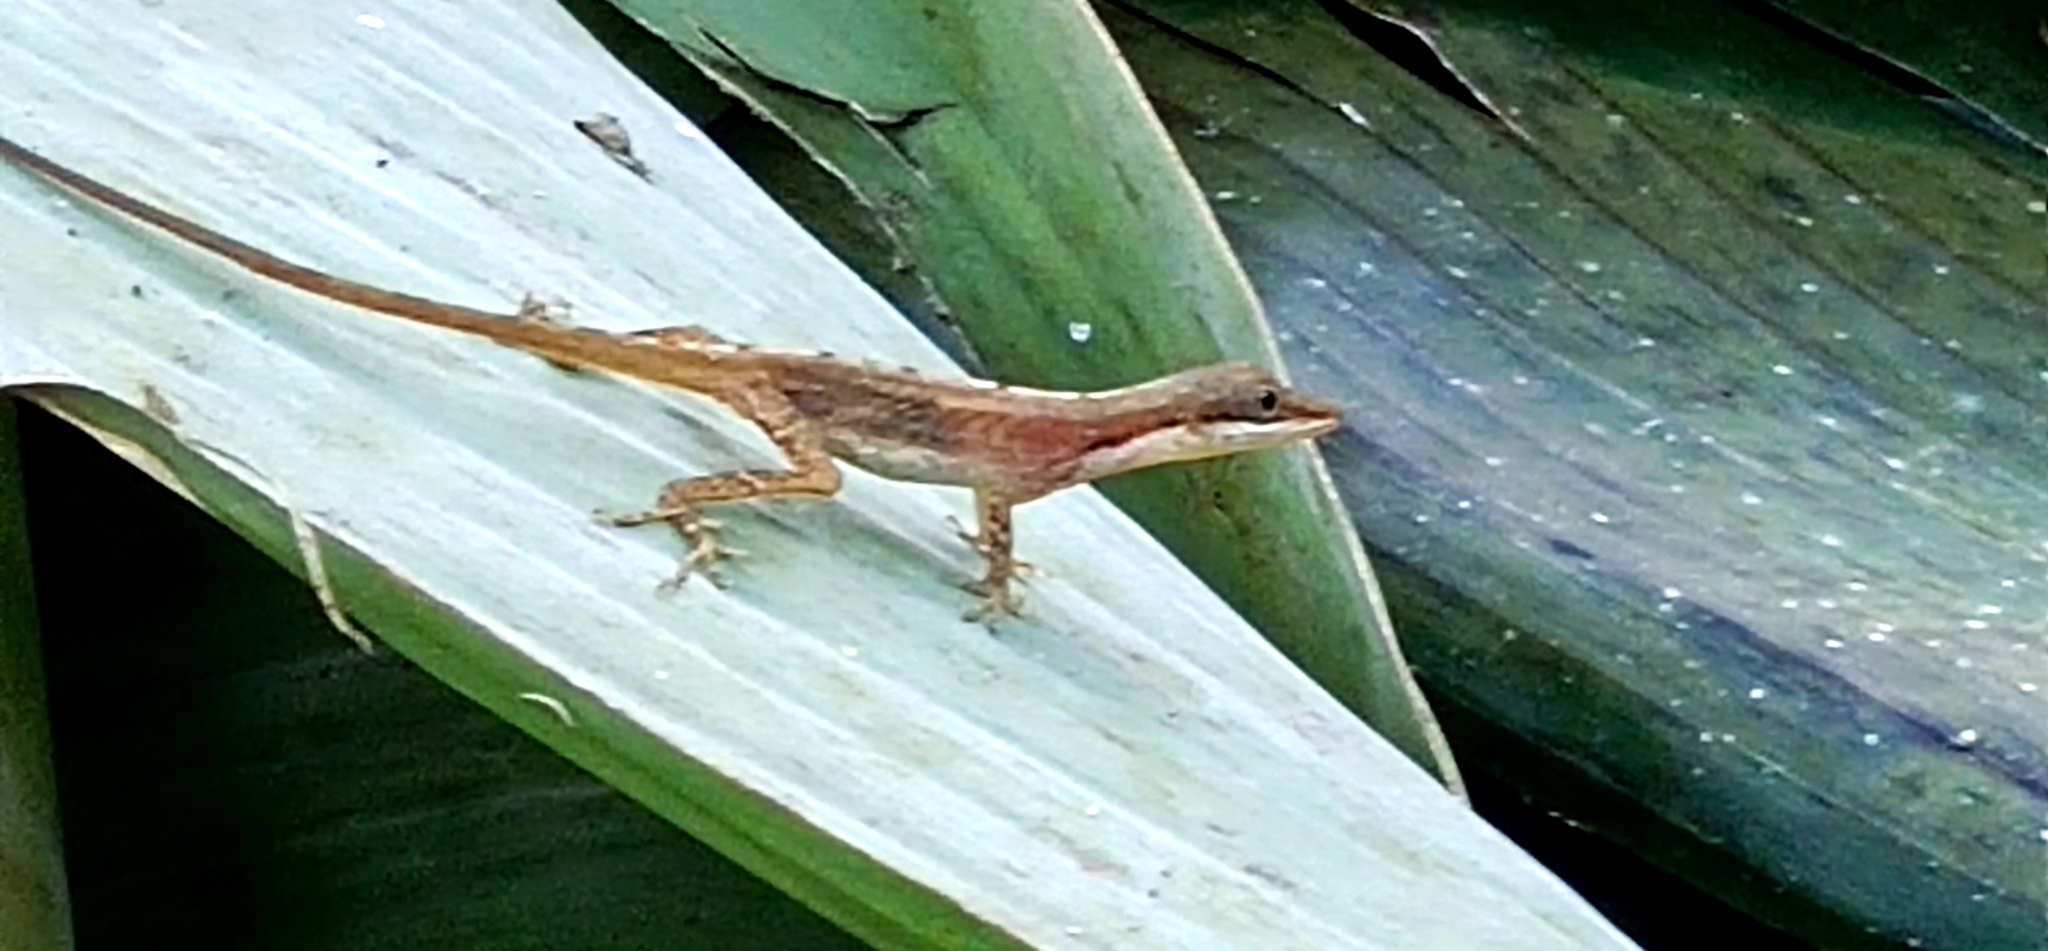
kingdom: Animalia
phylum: Chordata
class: Squamata
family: Dactyloidae
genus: Anolis
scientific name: Anolis limifrons
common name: Border anole
